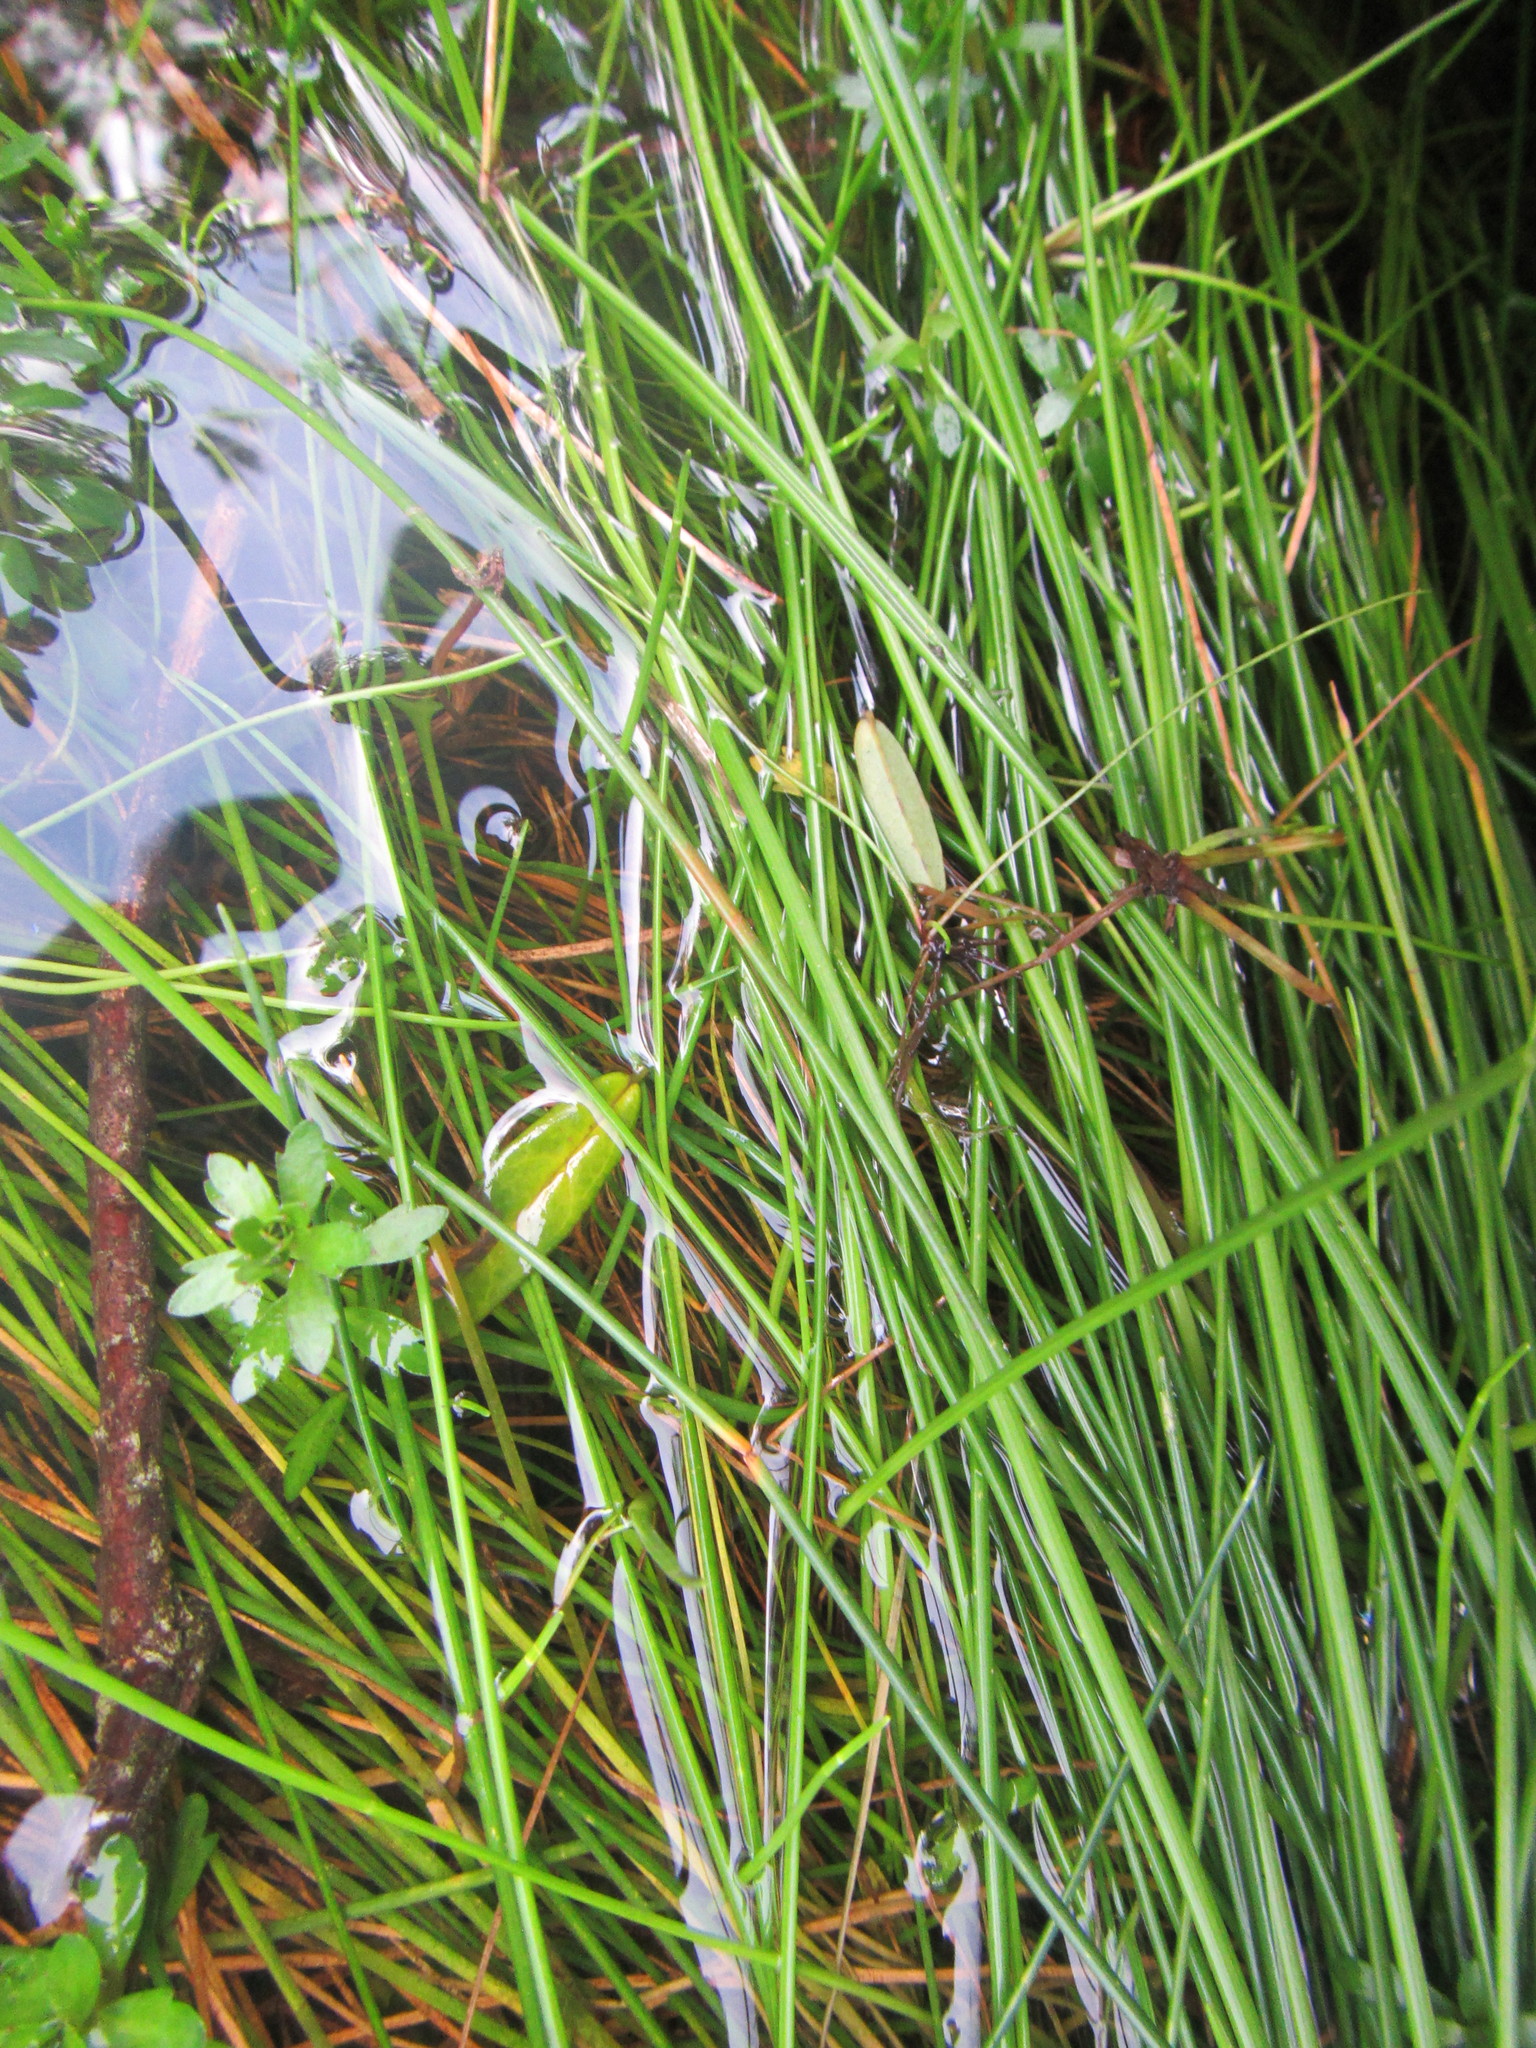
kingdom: Plantae
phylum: Tracheophyta
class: Liliopsida
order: Poales
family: Cyperaceae
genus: Isolepis
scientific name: Isolepis prolifera
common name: Proliferating bulrush
